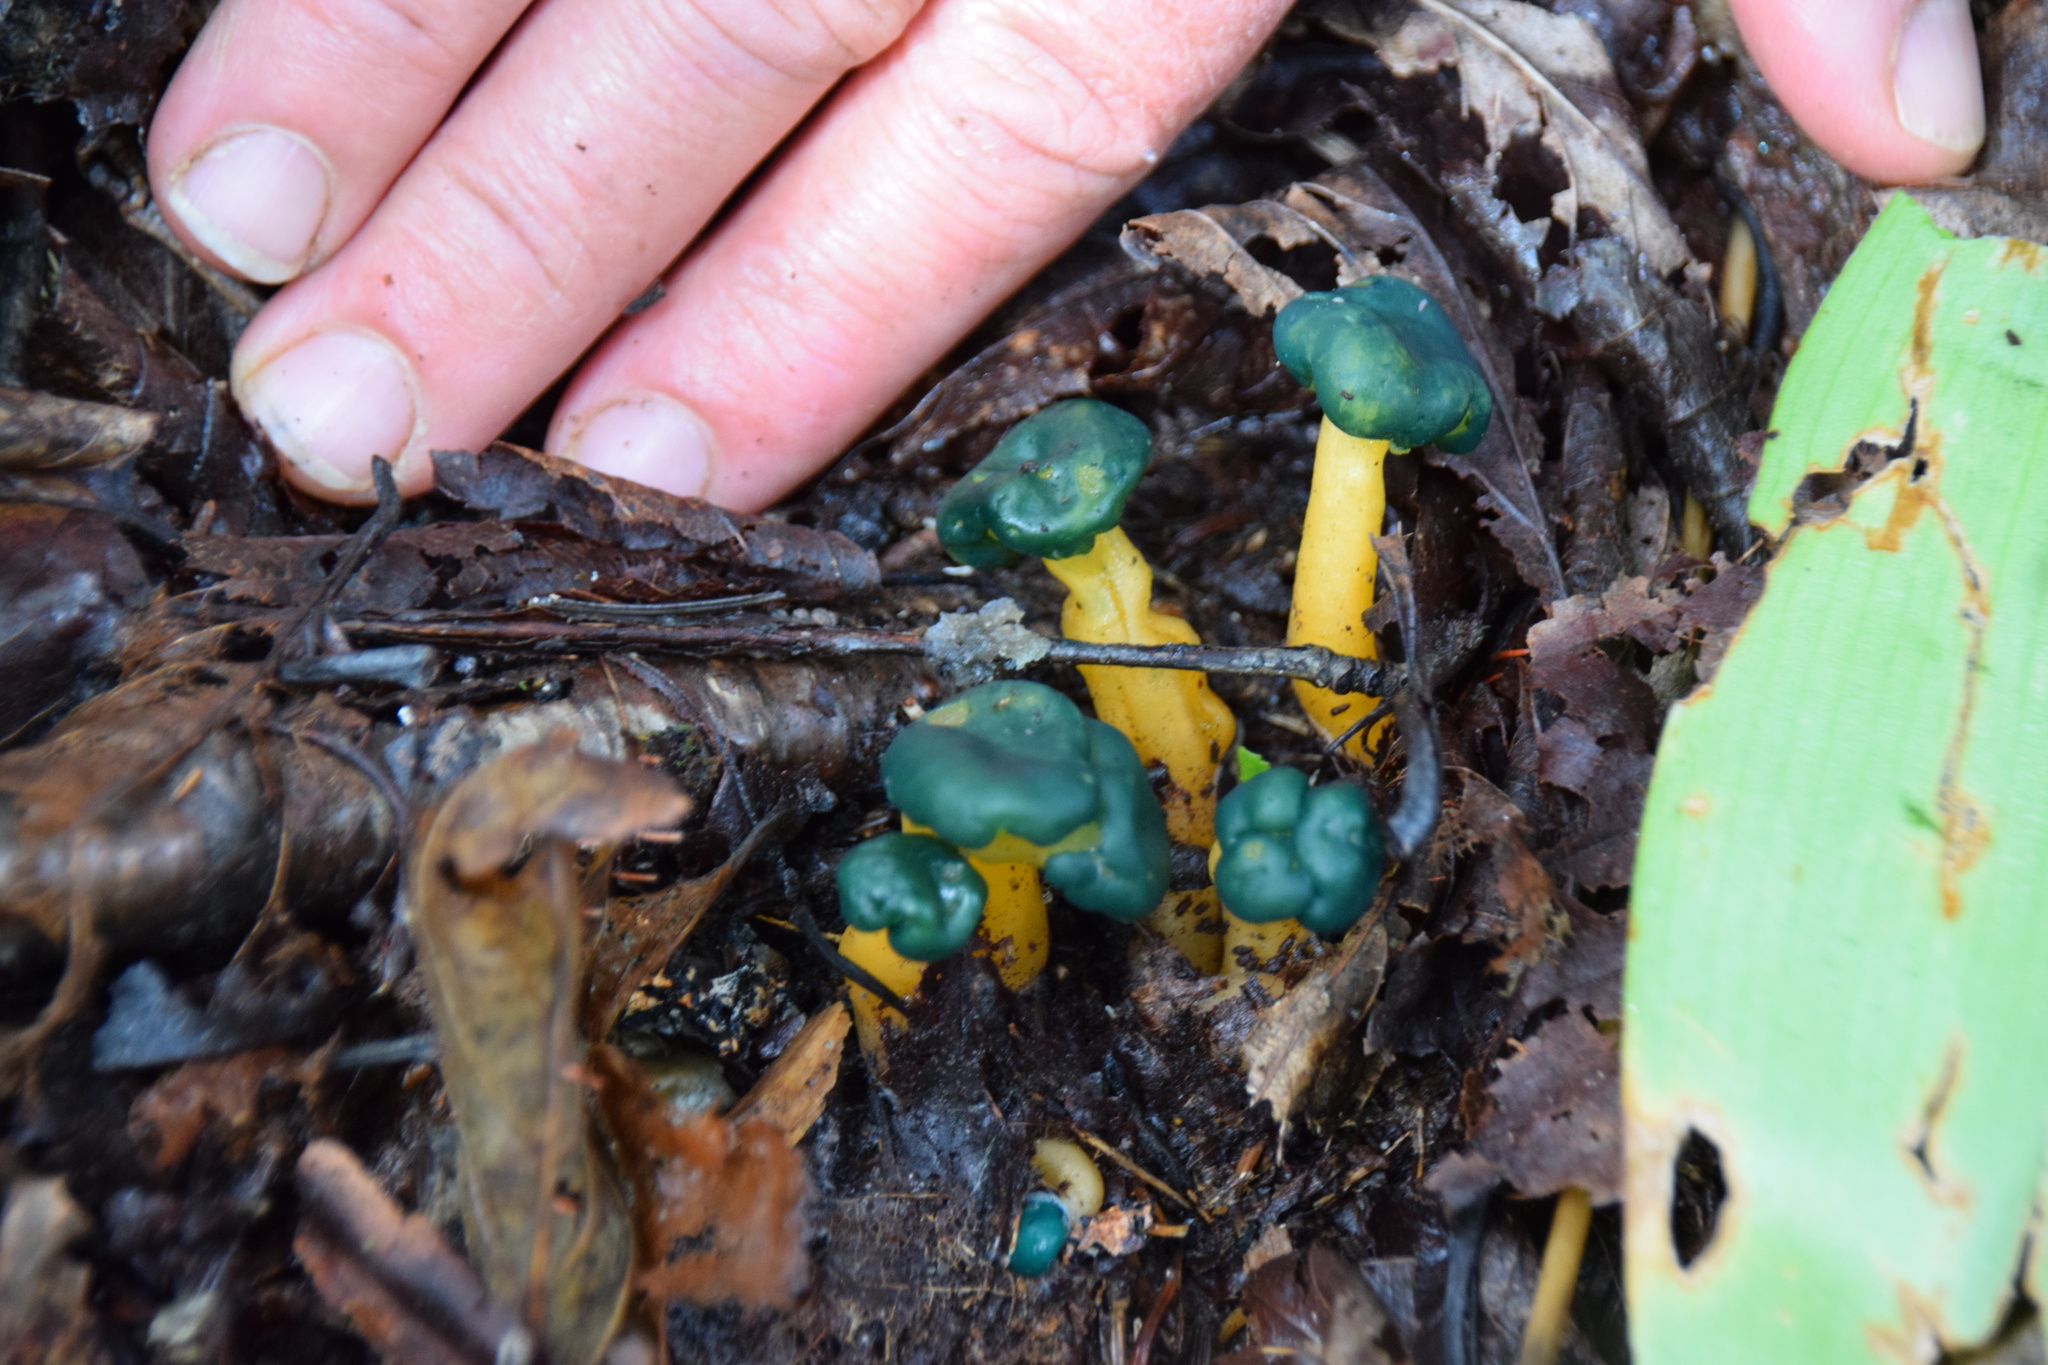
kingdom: Fungi
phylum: Ascomycota
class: Leotiomycetes
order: Leotiales
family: Leotiaceae
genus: Leotia
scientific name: Leotia lubrica
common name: Jellybaby
